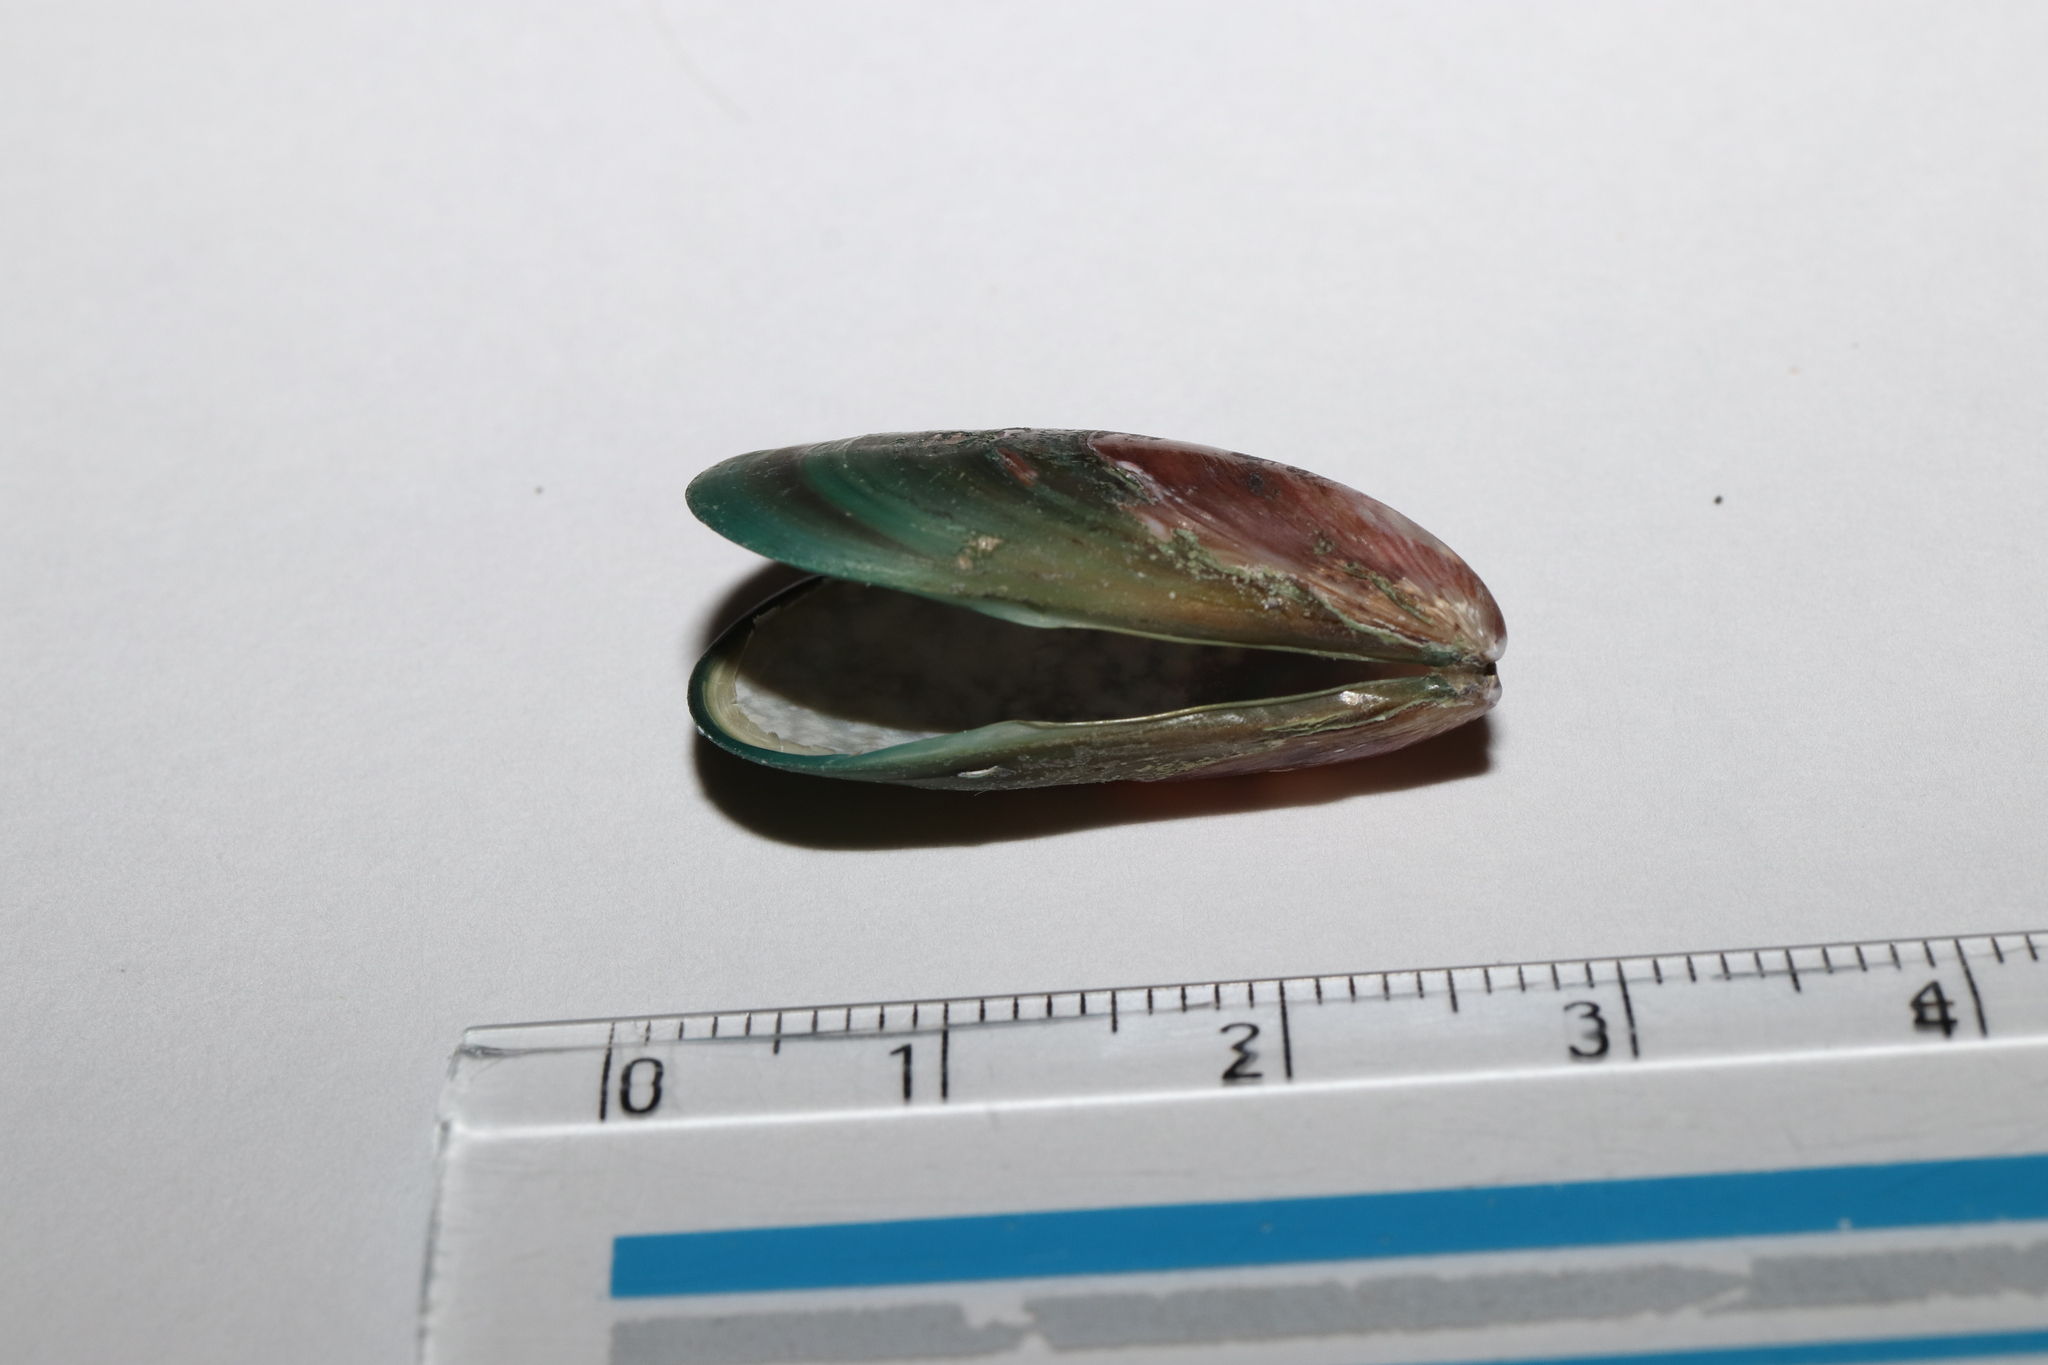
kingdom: Animalia
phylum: Mollusca
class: Bivalvia
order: Mytilida
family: Mytilidae
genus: Perna
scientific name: Perna viridis
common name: Green mussel
